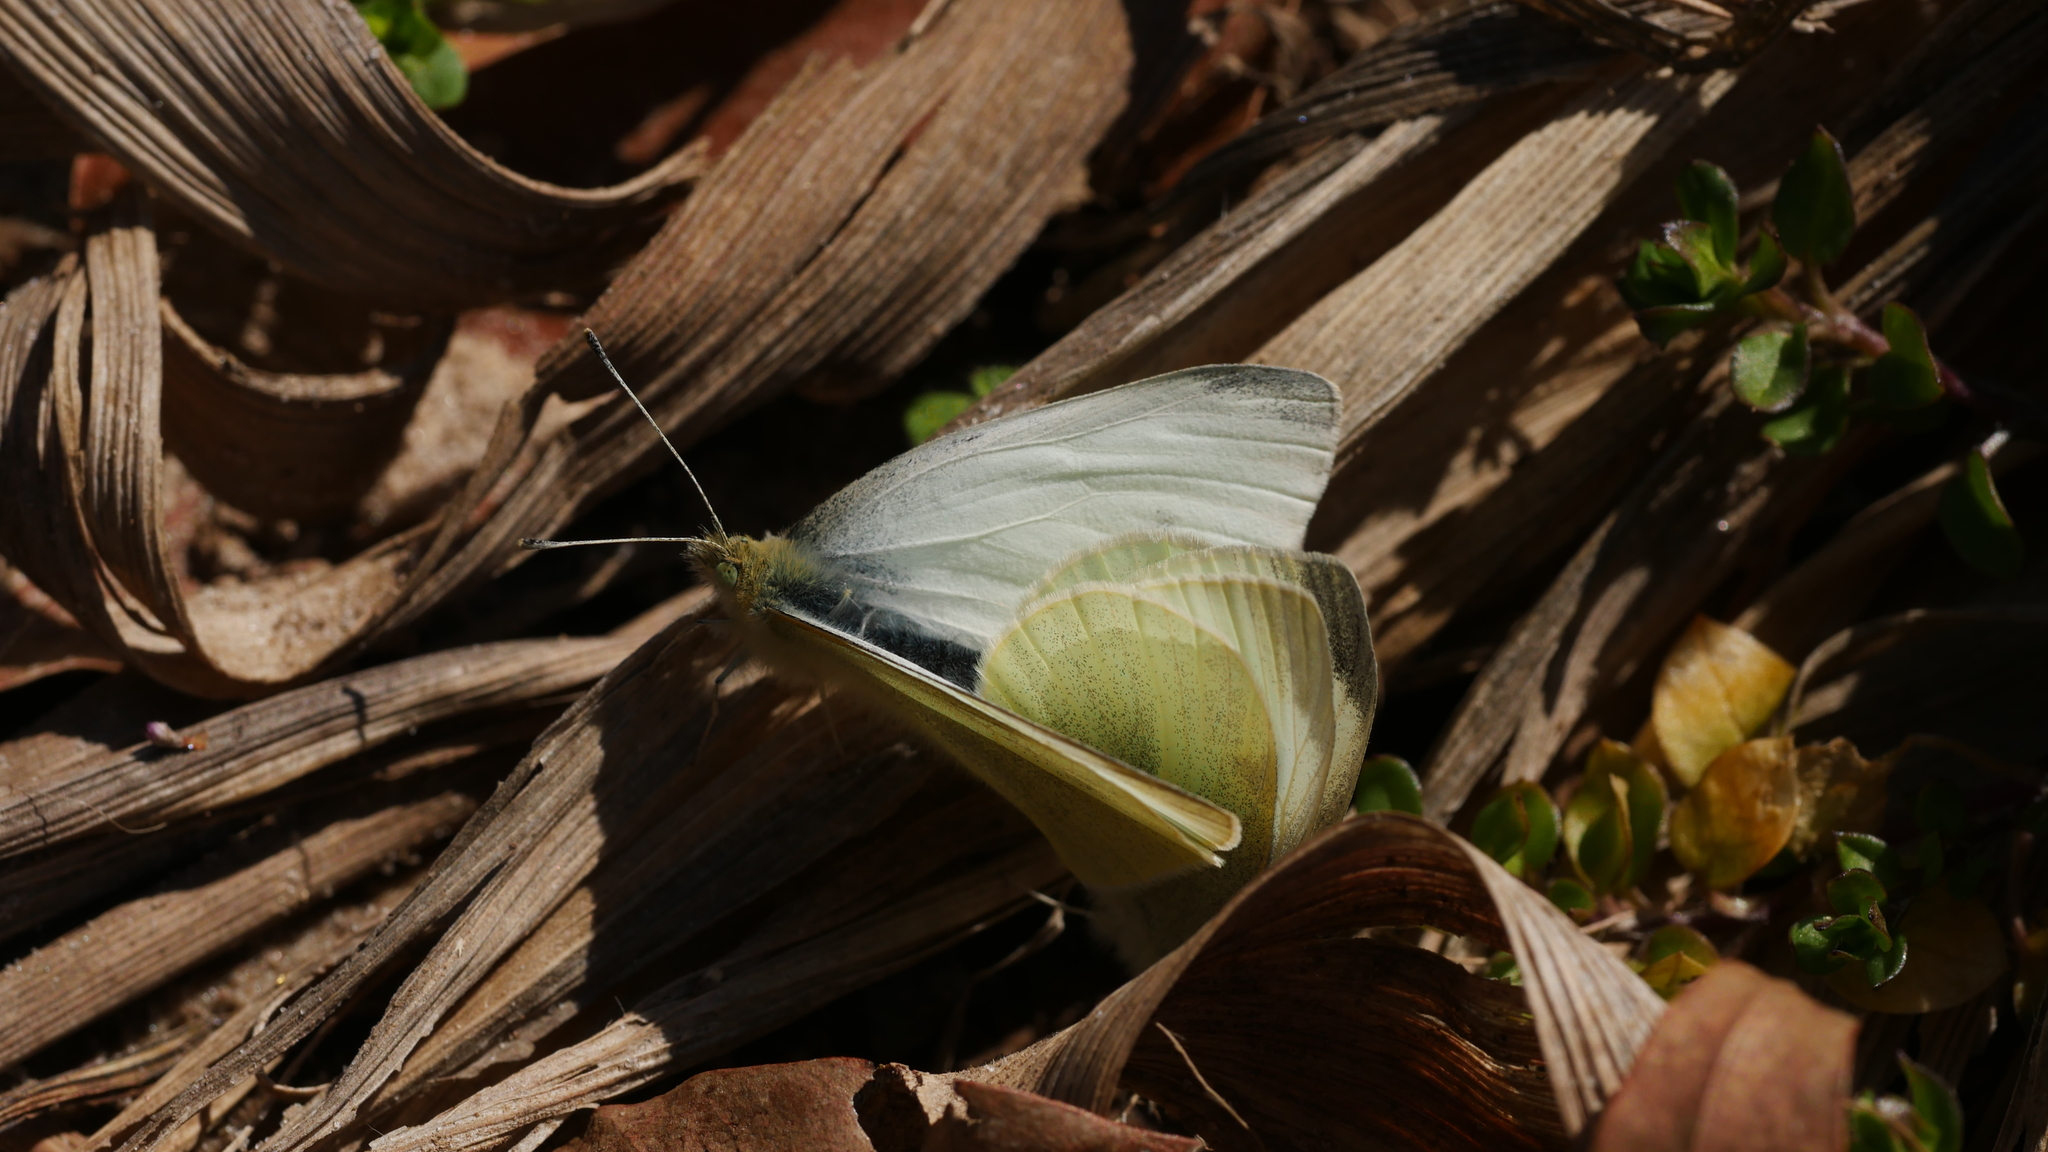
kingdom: Animalia
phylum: Arthropoda
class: Insecta
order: Lepidoptera
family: Pieridae
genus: Pieris
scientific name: Pieris rapae
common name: Small white
